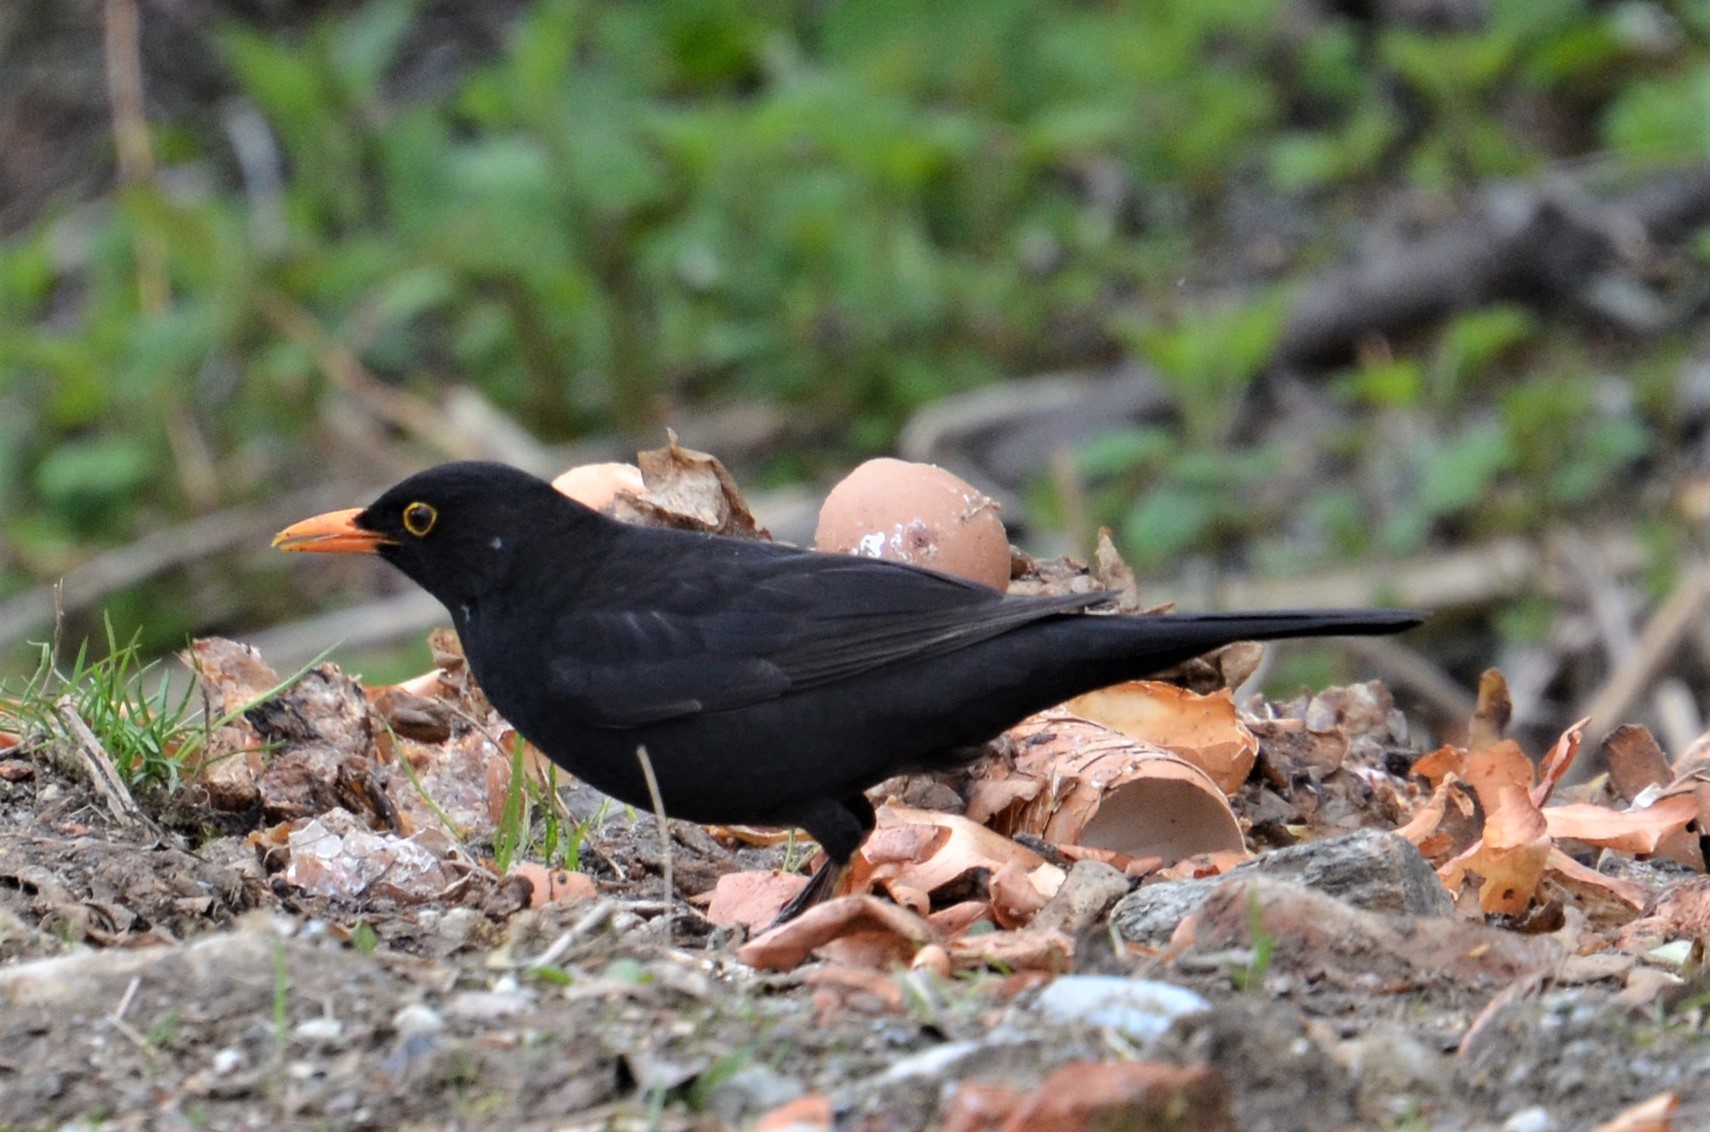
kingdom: Animalia
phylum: Chordata
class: Aves
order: Passeriformes
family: Turdidae
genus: Turdus
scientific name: Turdus merula
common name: Common blackbird
